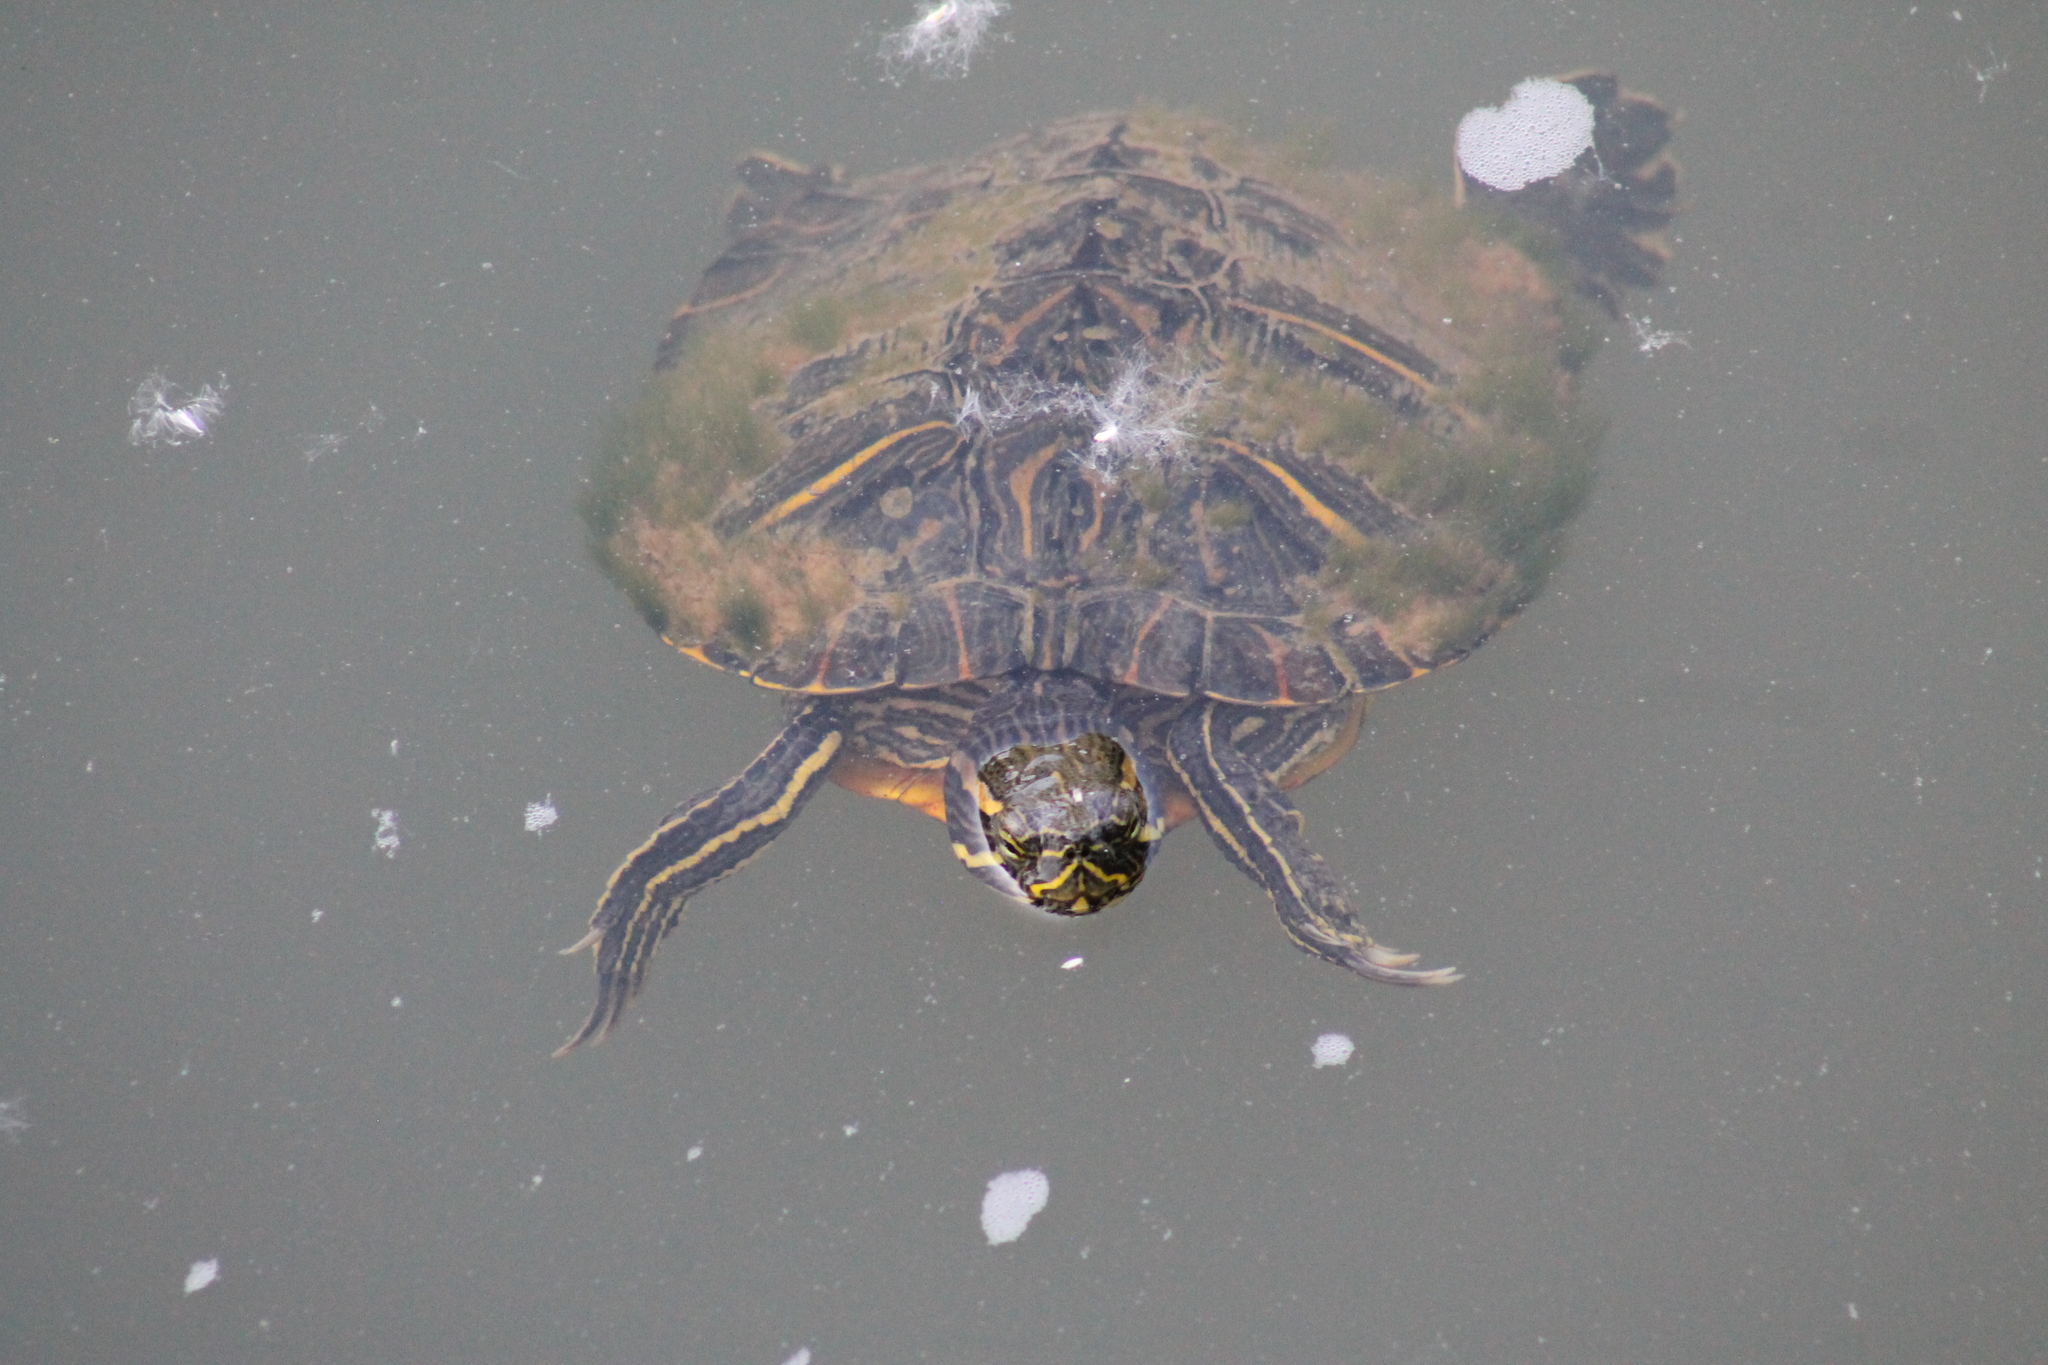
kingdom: Animalia
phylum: Chordata
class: Testudines
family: Emydidae
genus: Trachemys
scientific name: Trachemys scripta
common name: Slider
